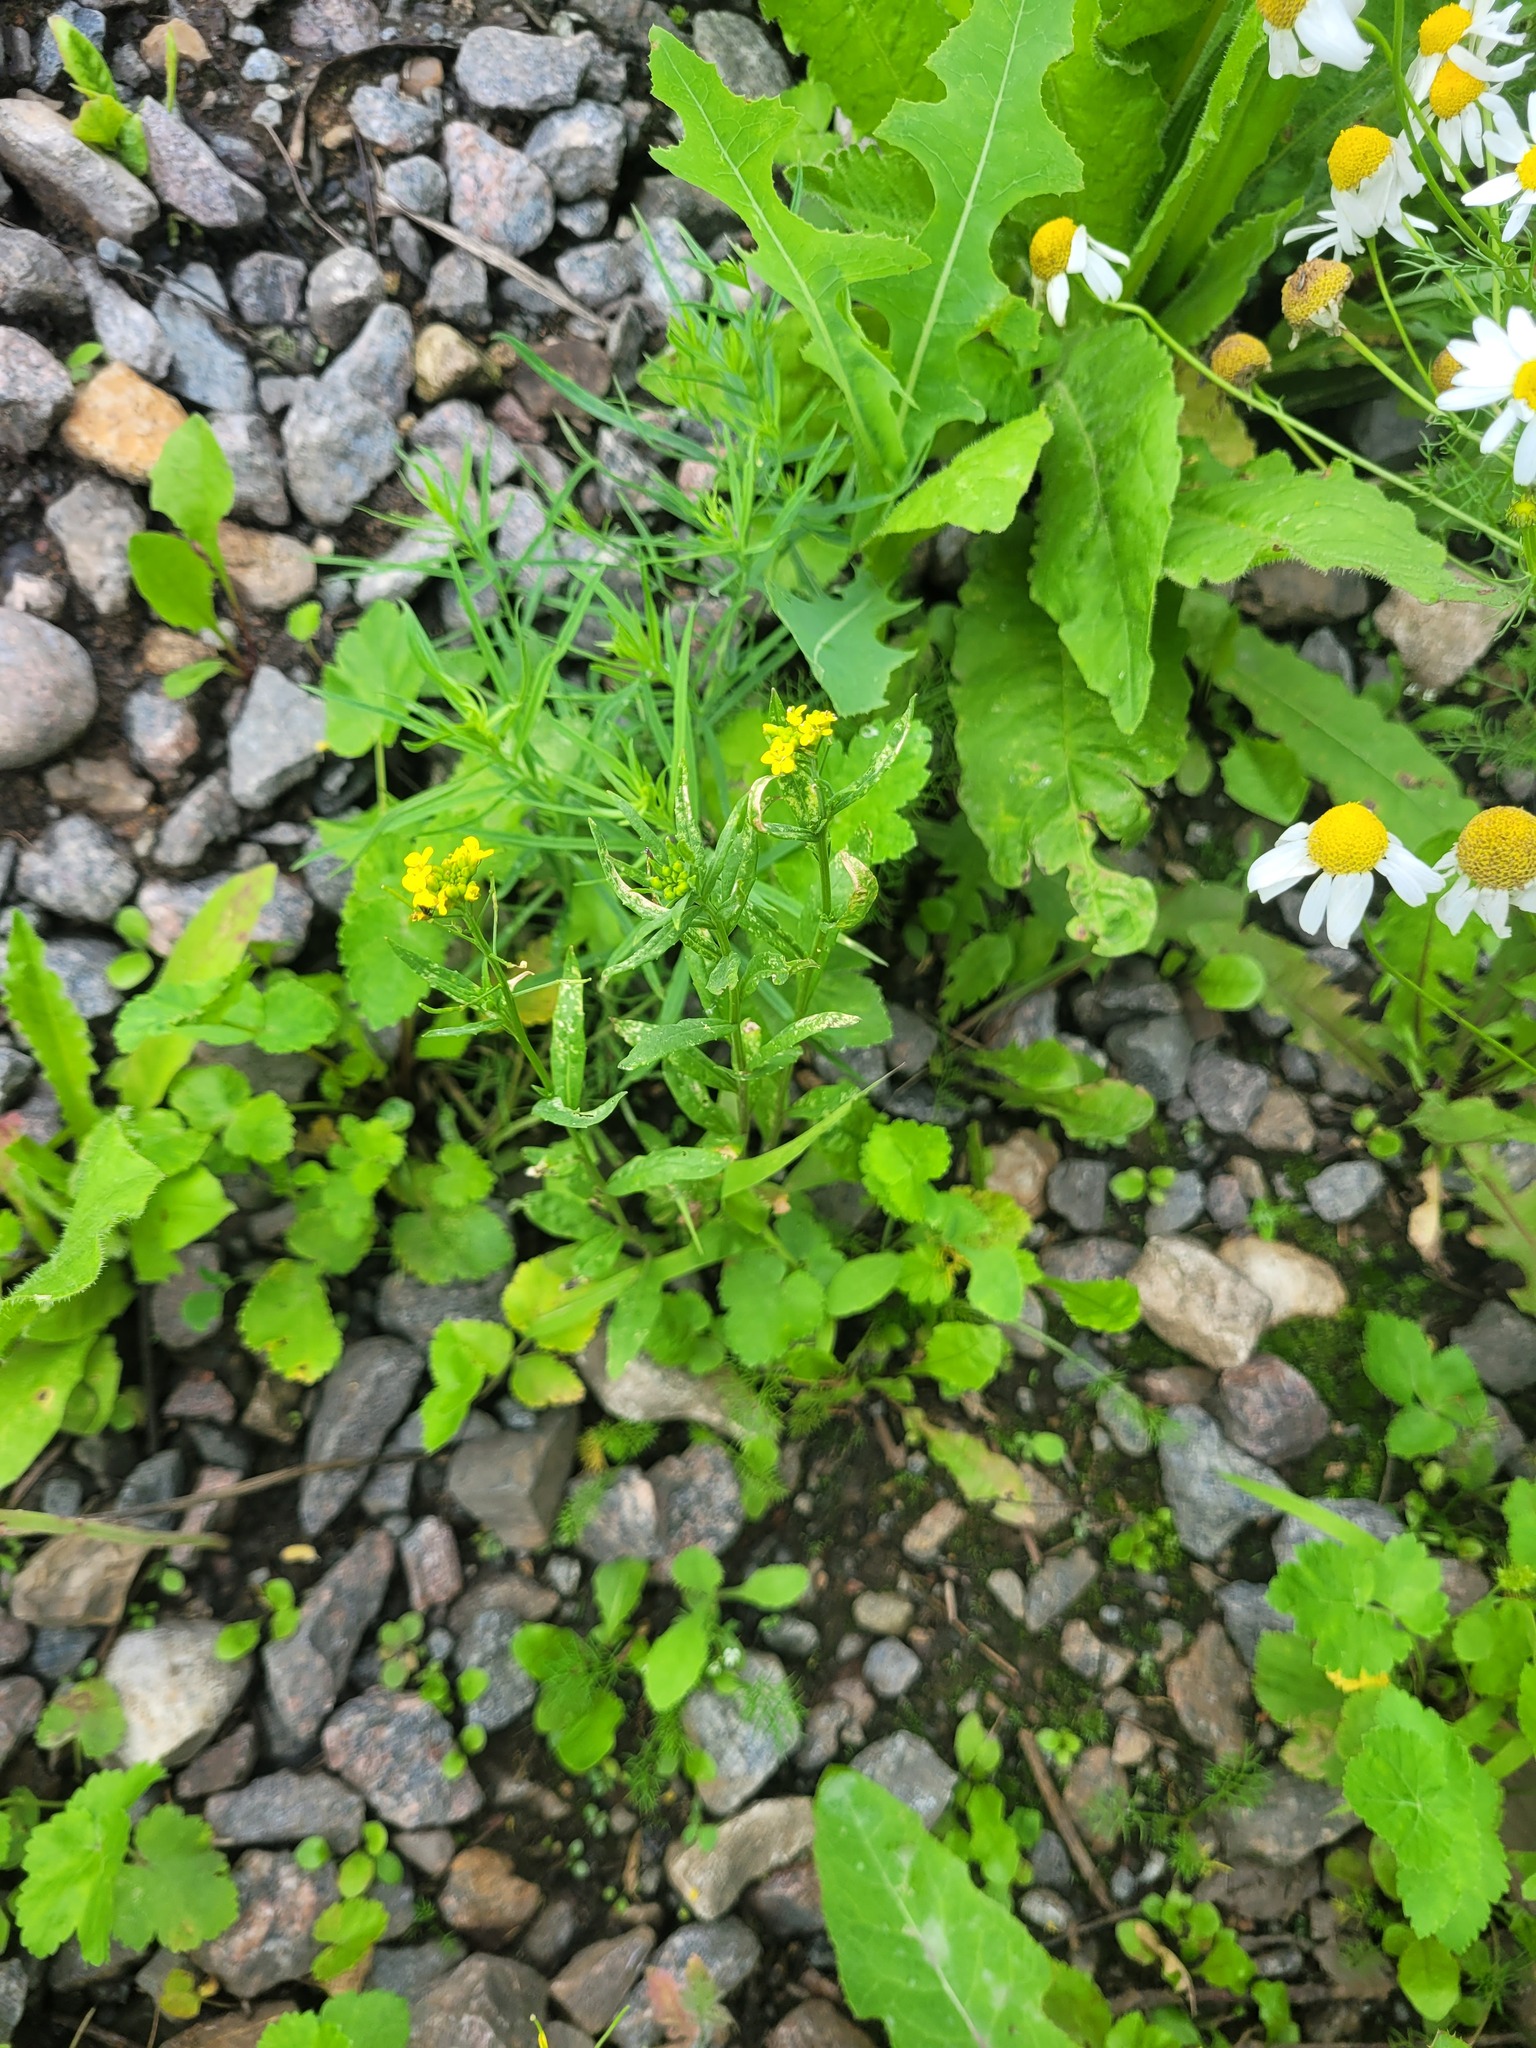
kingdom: Plantae
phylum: Tracheophyta
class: Magnoliopsida
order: Brassicales
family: Brassicaceae
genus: Erysimum
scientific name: Erysimum cheiranthoides
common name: Treacle mustard
